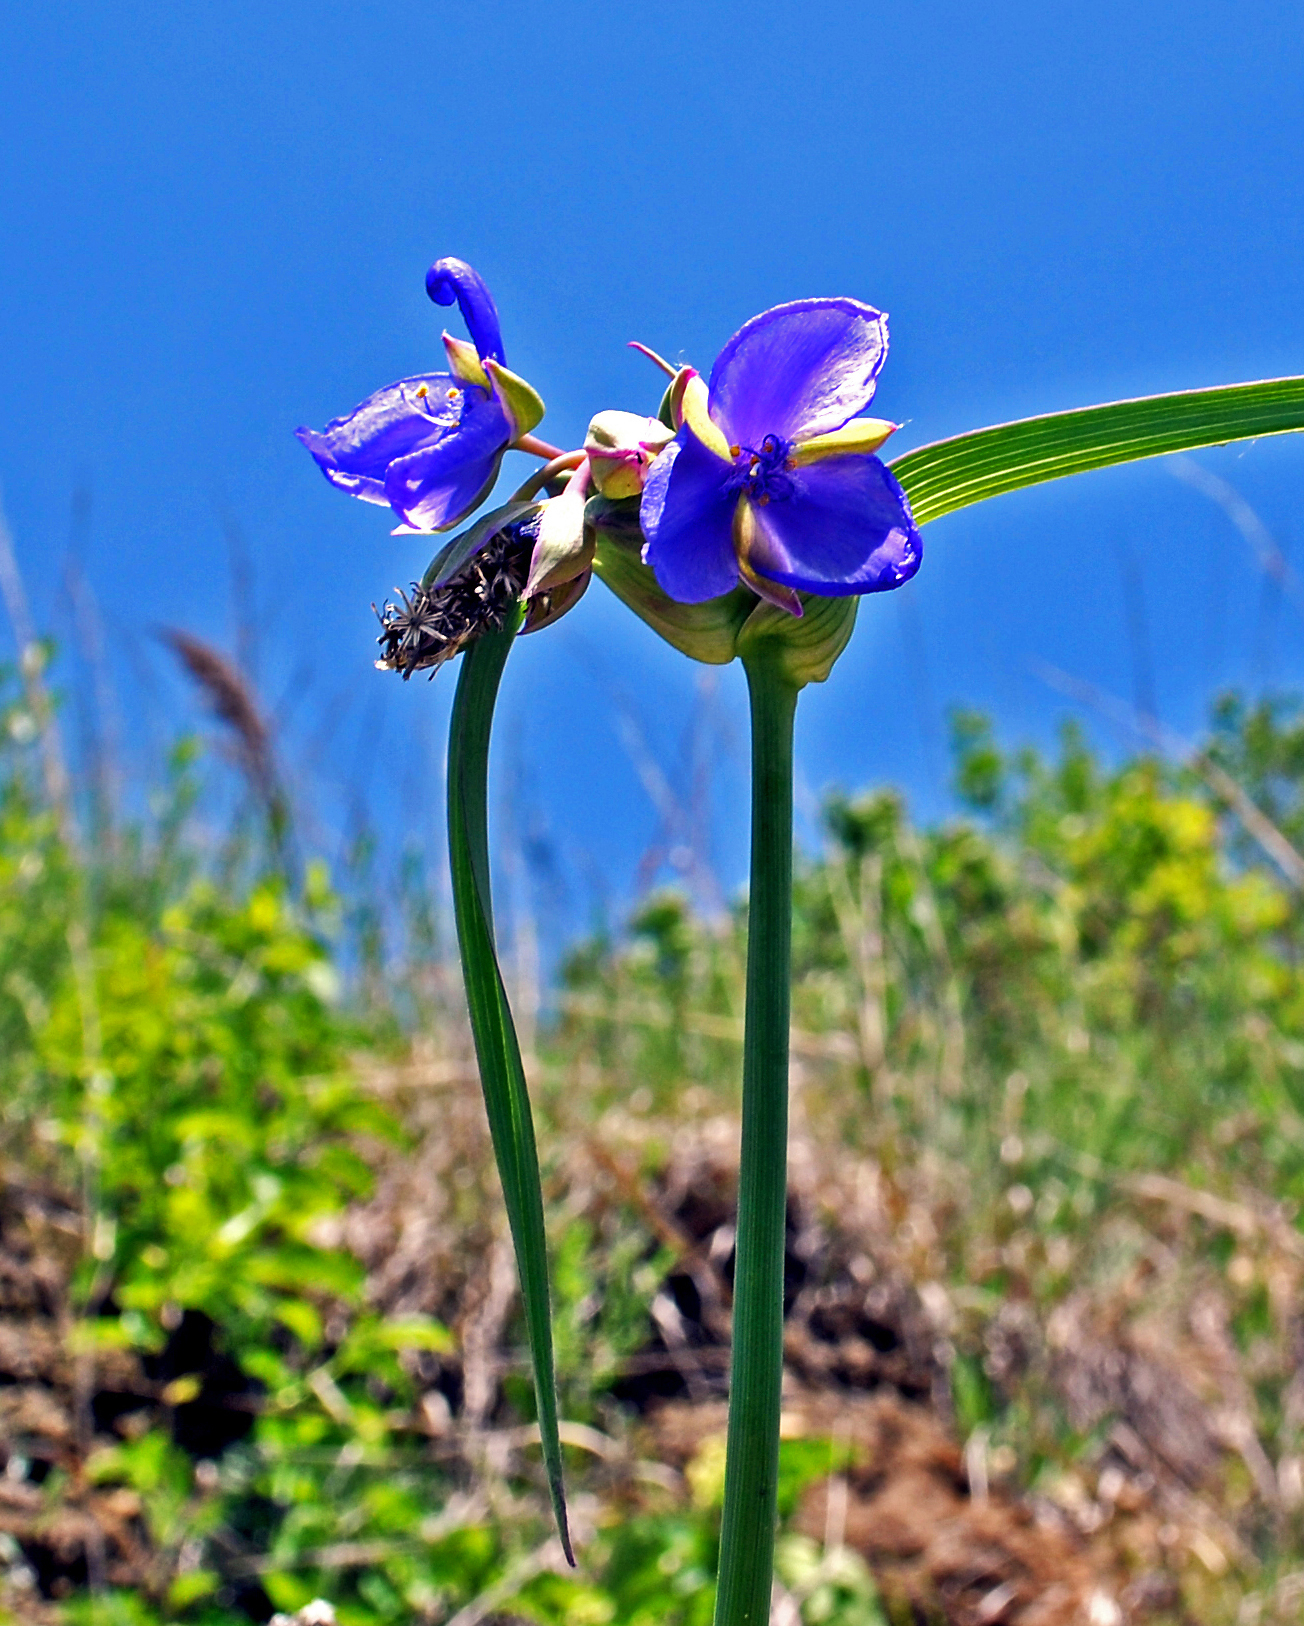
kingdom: Plantae
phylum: Tracheophyta
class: Liliopsida
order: Commelinales
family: Commelinaceae
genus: Tradescantia
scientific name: Tradescantia ohiensis
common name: Ohio spiderwort
